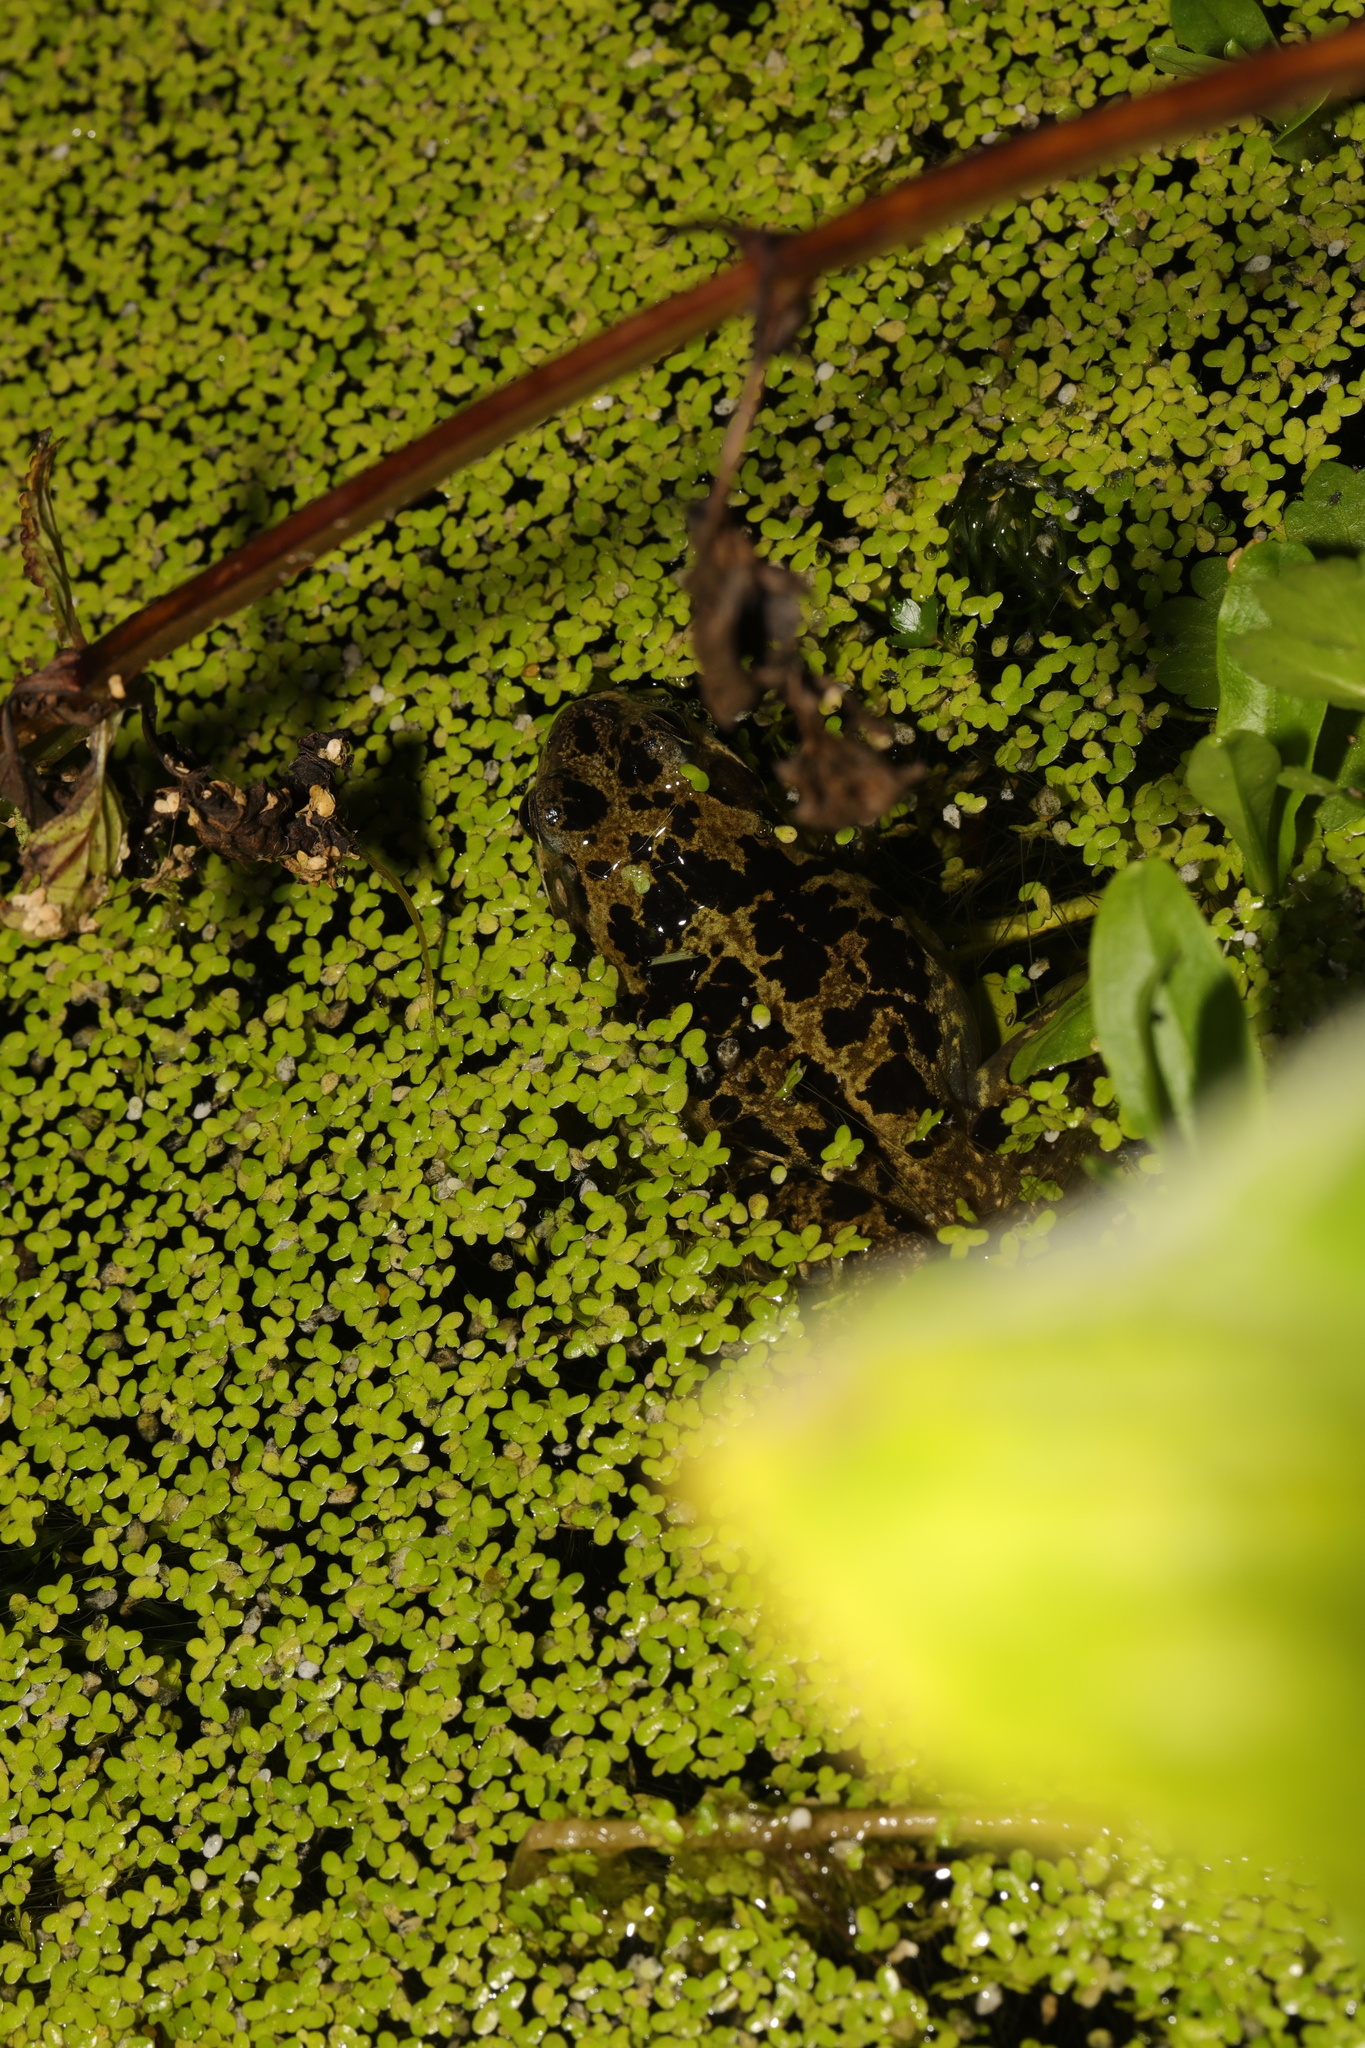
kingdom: Animalia
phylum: Chordata
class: Amphibia
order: Anura
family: Ranidae
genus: Rana
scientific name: Rana temporaria
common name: Common frog
